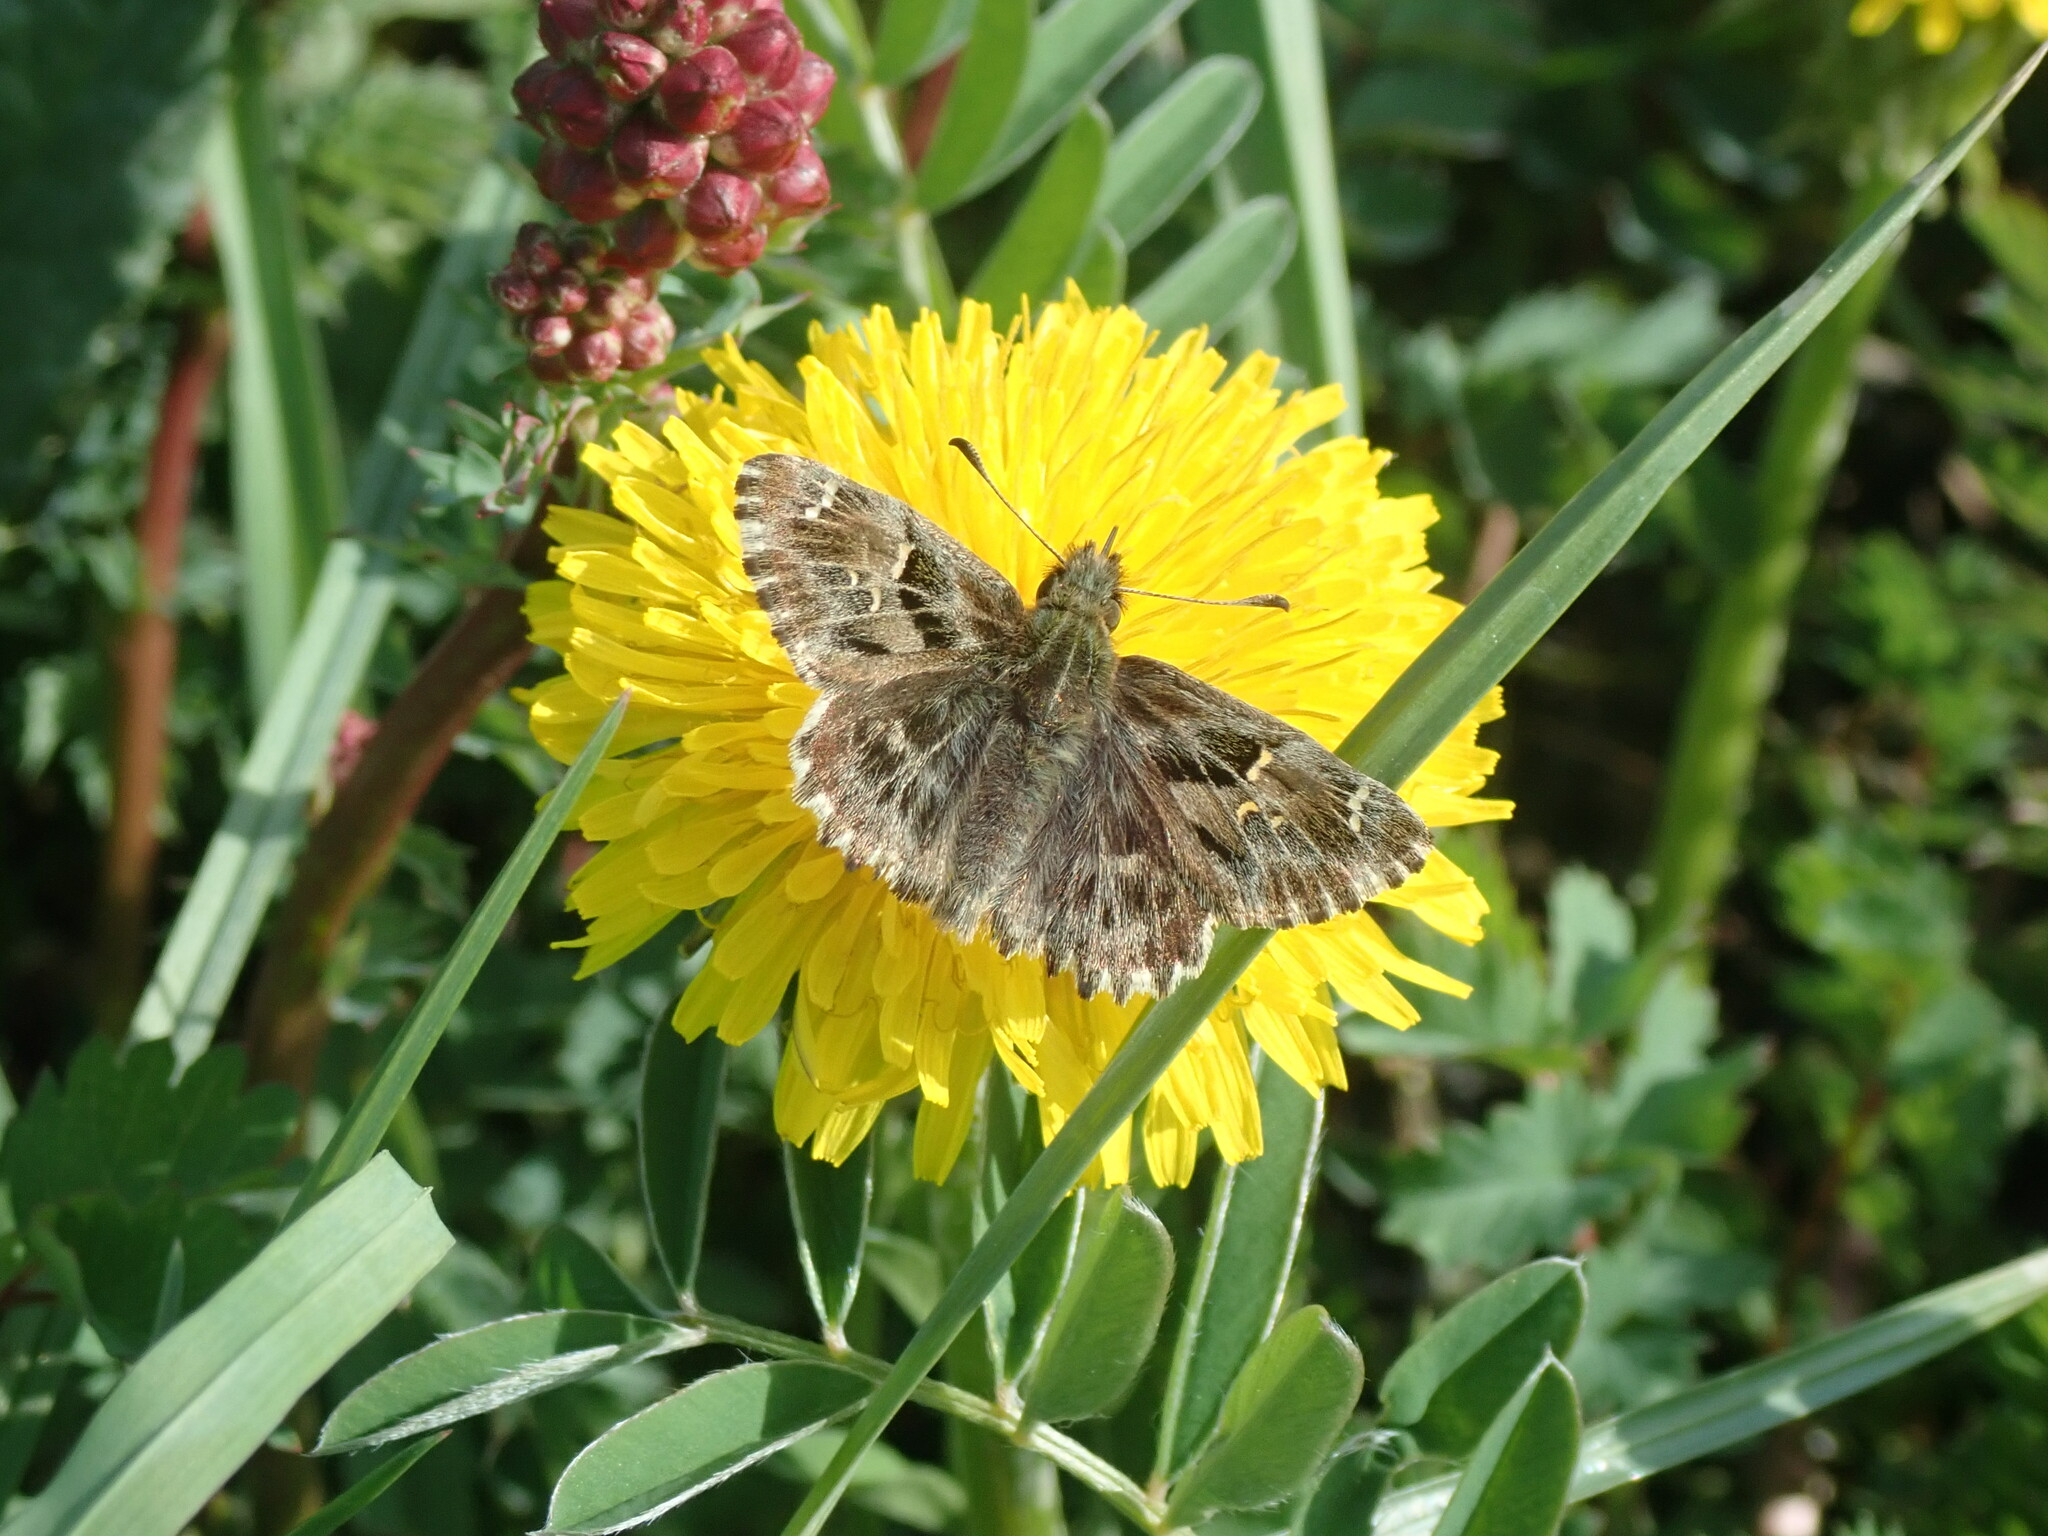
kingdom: Animalia
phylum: Arthropoda
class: Insecta
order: Lepidoptera
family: Hesperiidae
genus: Carcharodus
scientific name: Carcharodus alceae
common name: Mallow skipper
